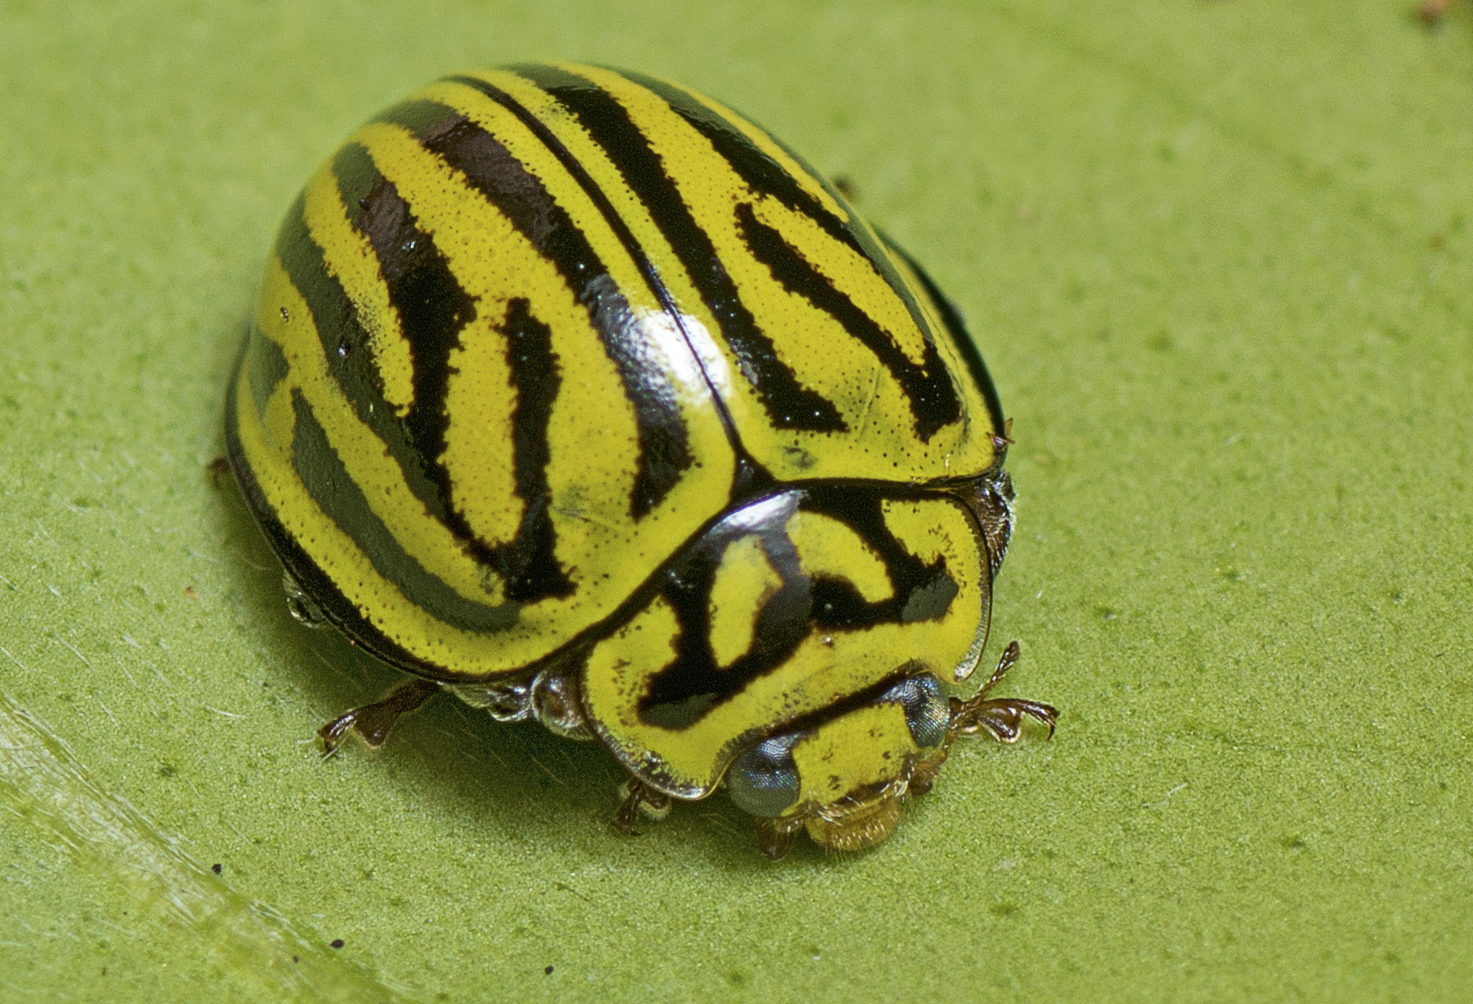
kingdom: Animalia
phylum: Arthropoda
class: Insecta
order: Coleoptera
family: Coccinellidae
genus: Archegleis
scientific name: Archegleis
